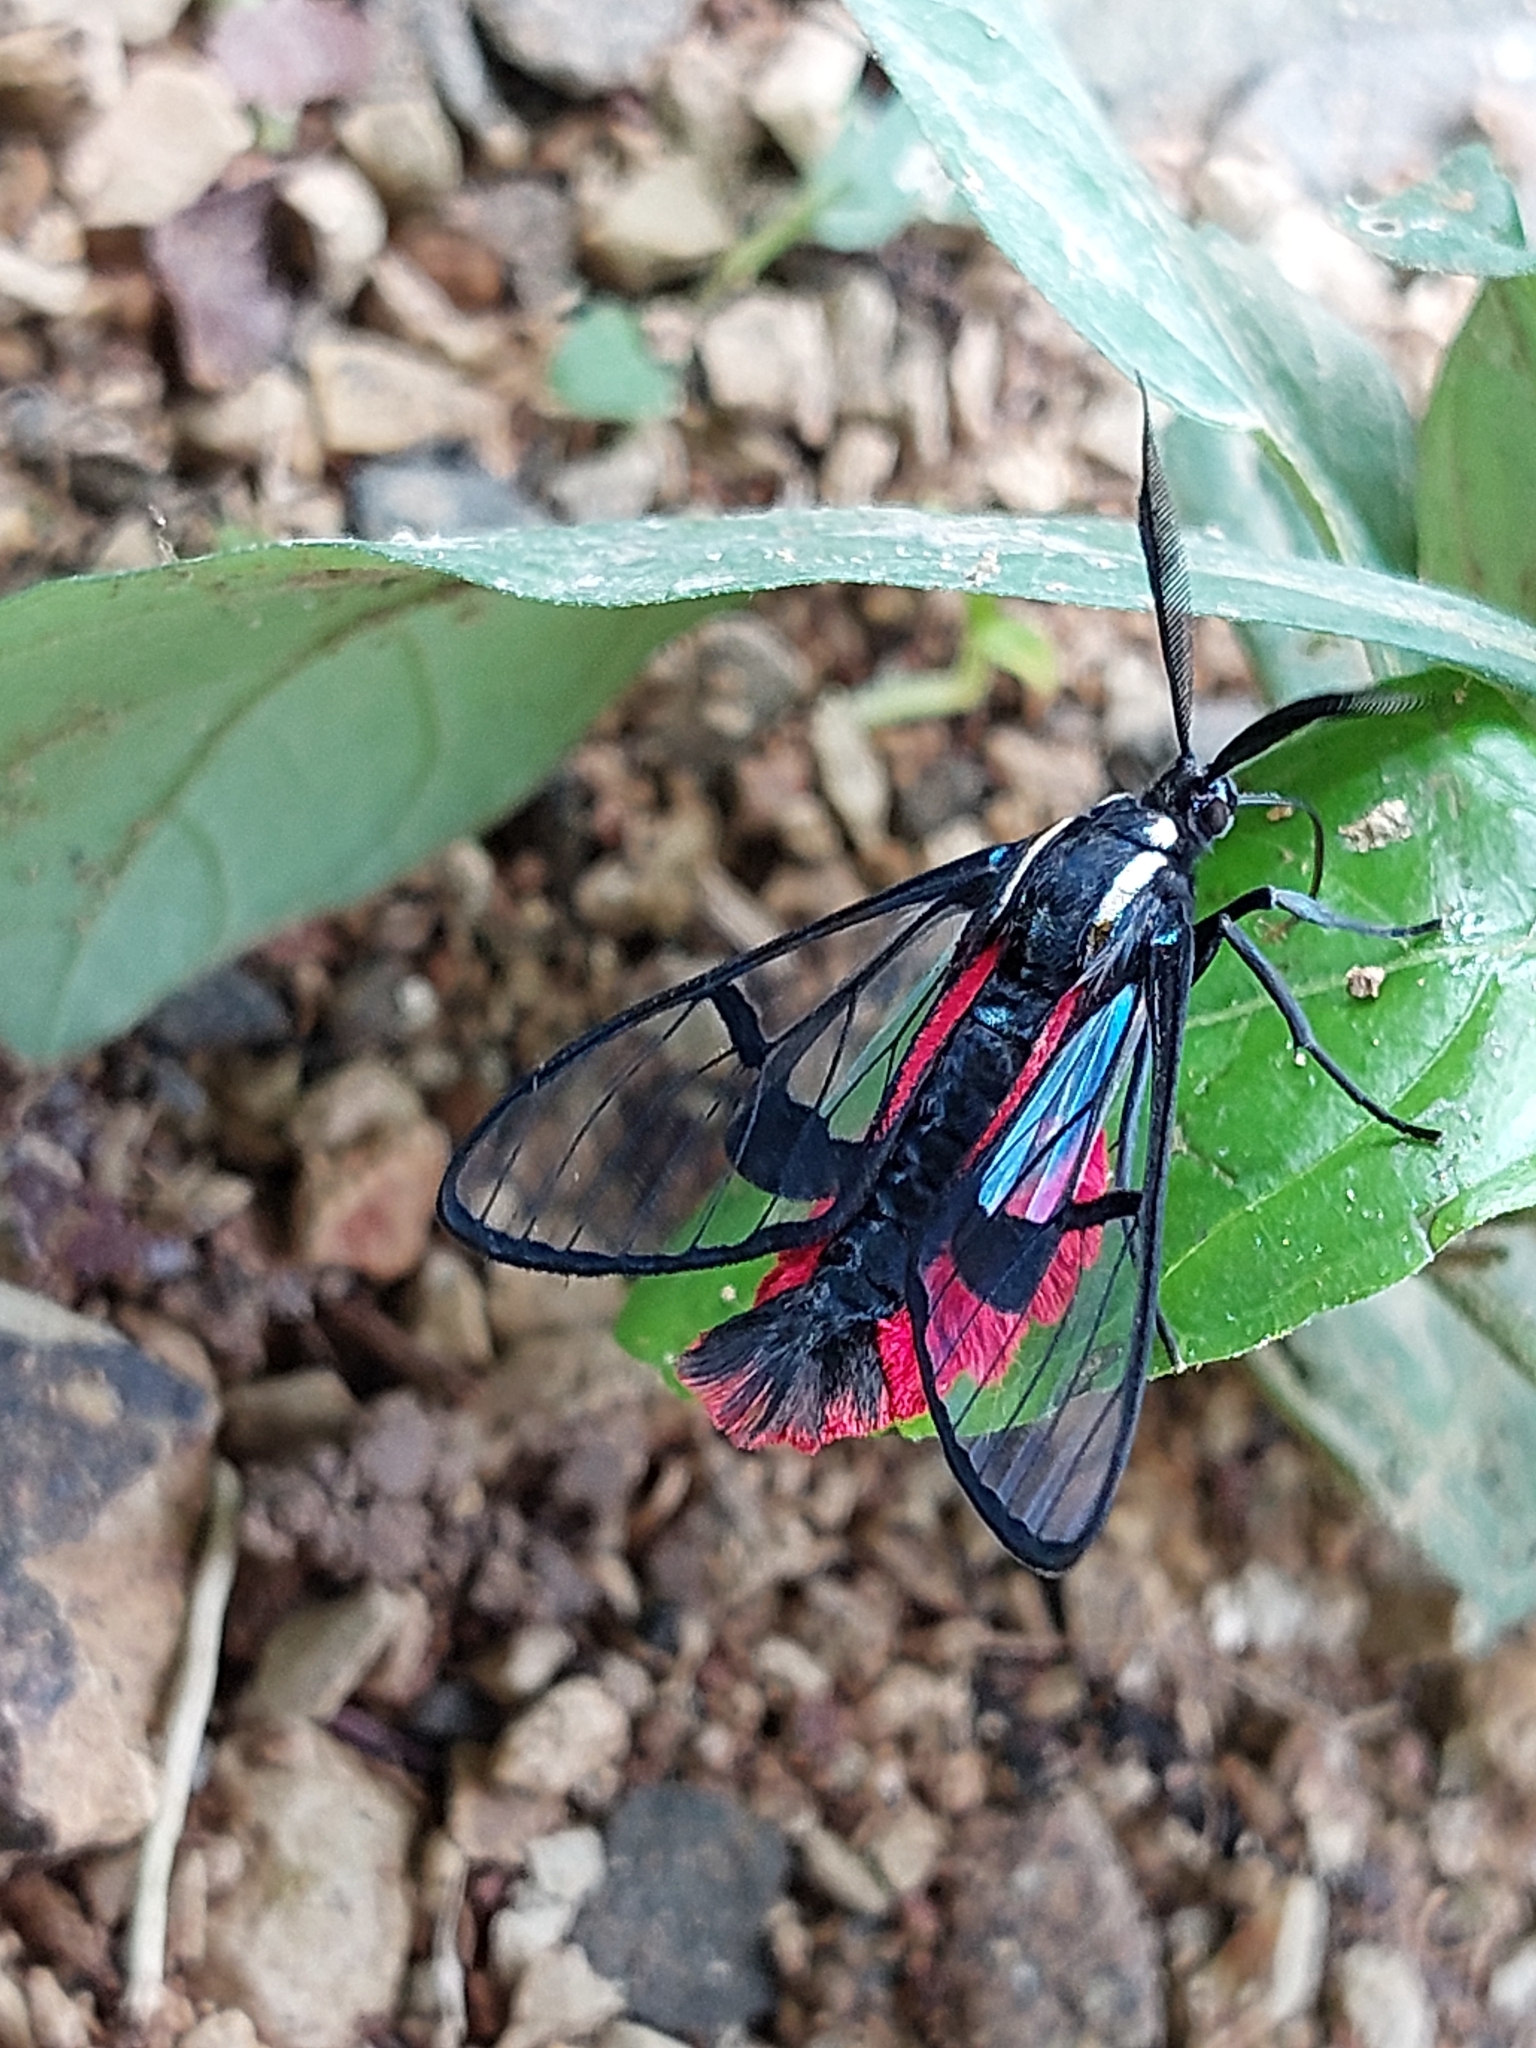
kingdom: Animalia
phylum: Arthropoda
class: Insecta
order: Lepidoptera
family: Erebidae
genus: Dinia
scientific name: Dinia eagrus
